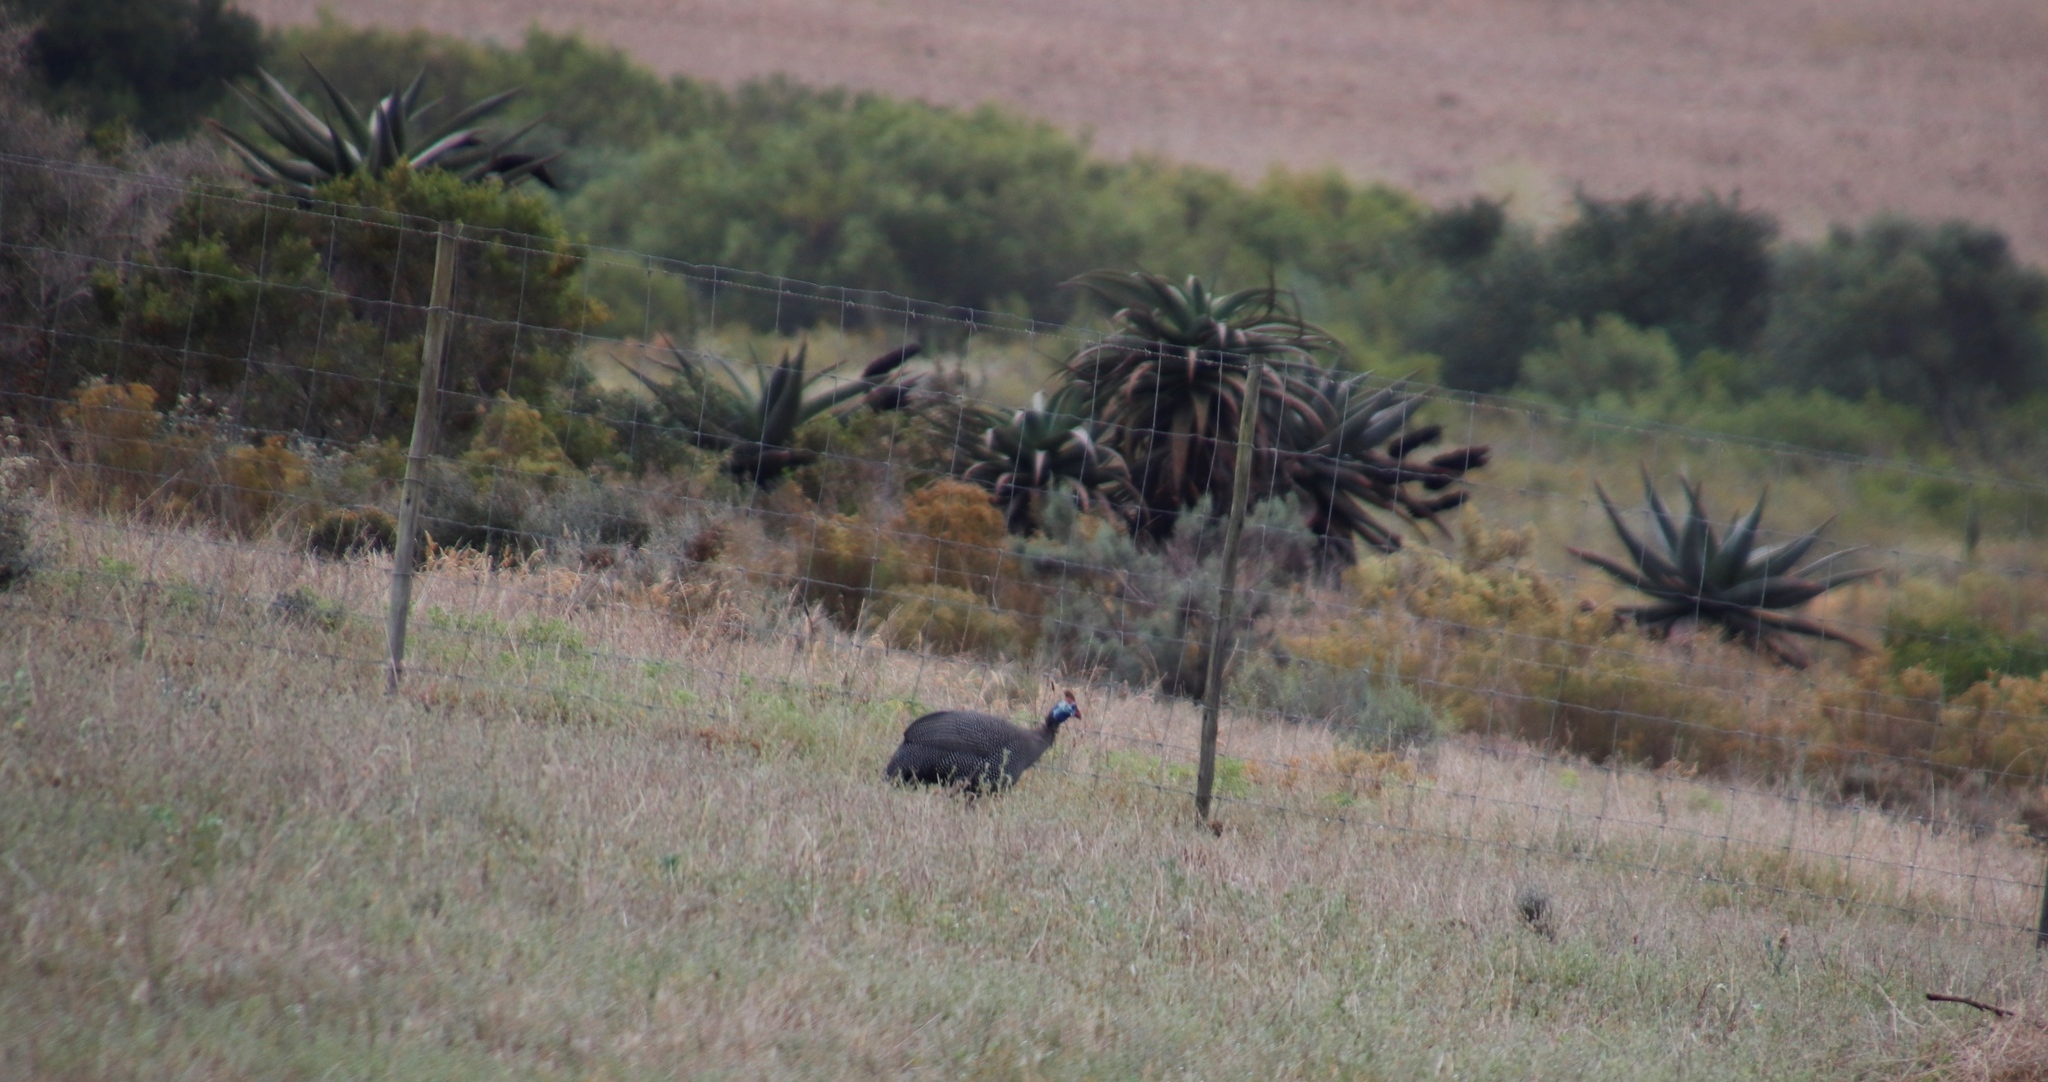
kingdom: Animalia
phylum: Chordata
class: Aves
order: Galliformes
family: Numididae
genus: Numida
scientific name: Numida meleagris
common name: Helmeted guineafowl
